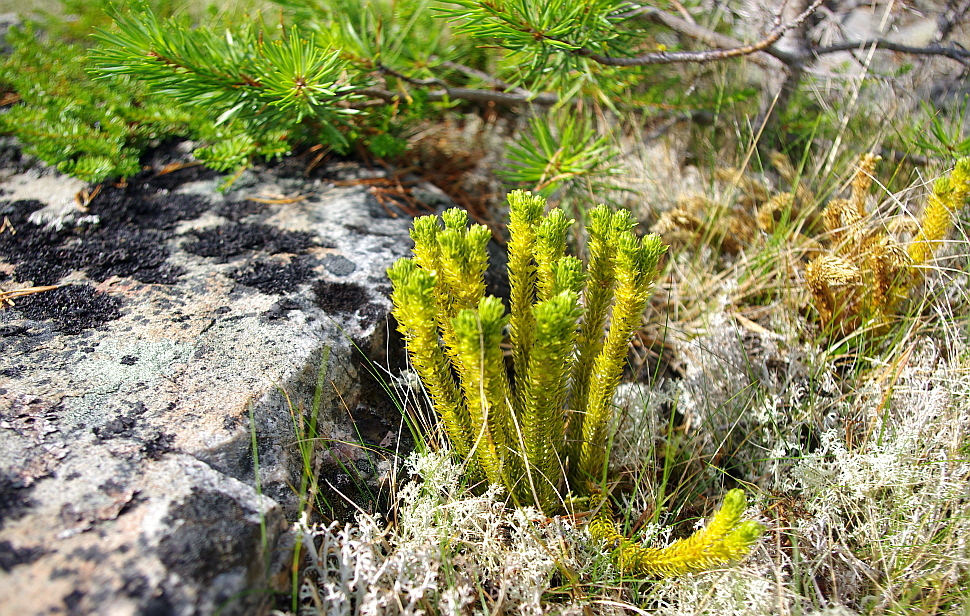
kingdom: Plantae
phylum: Tracheophyta
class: Lycopodiopsida
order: Lycopodiales
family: Lycopodiaceae
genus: Huperzia
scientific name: Huperzia selago
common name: Northern firmoss
